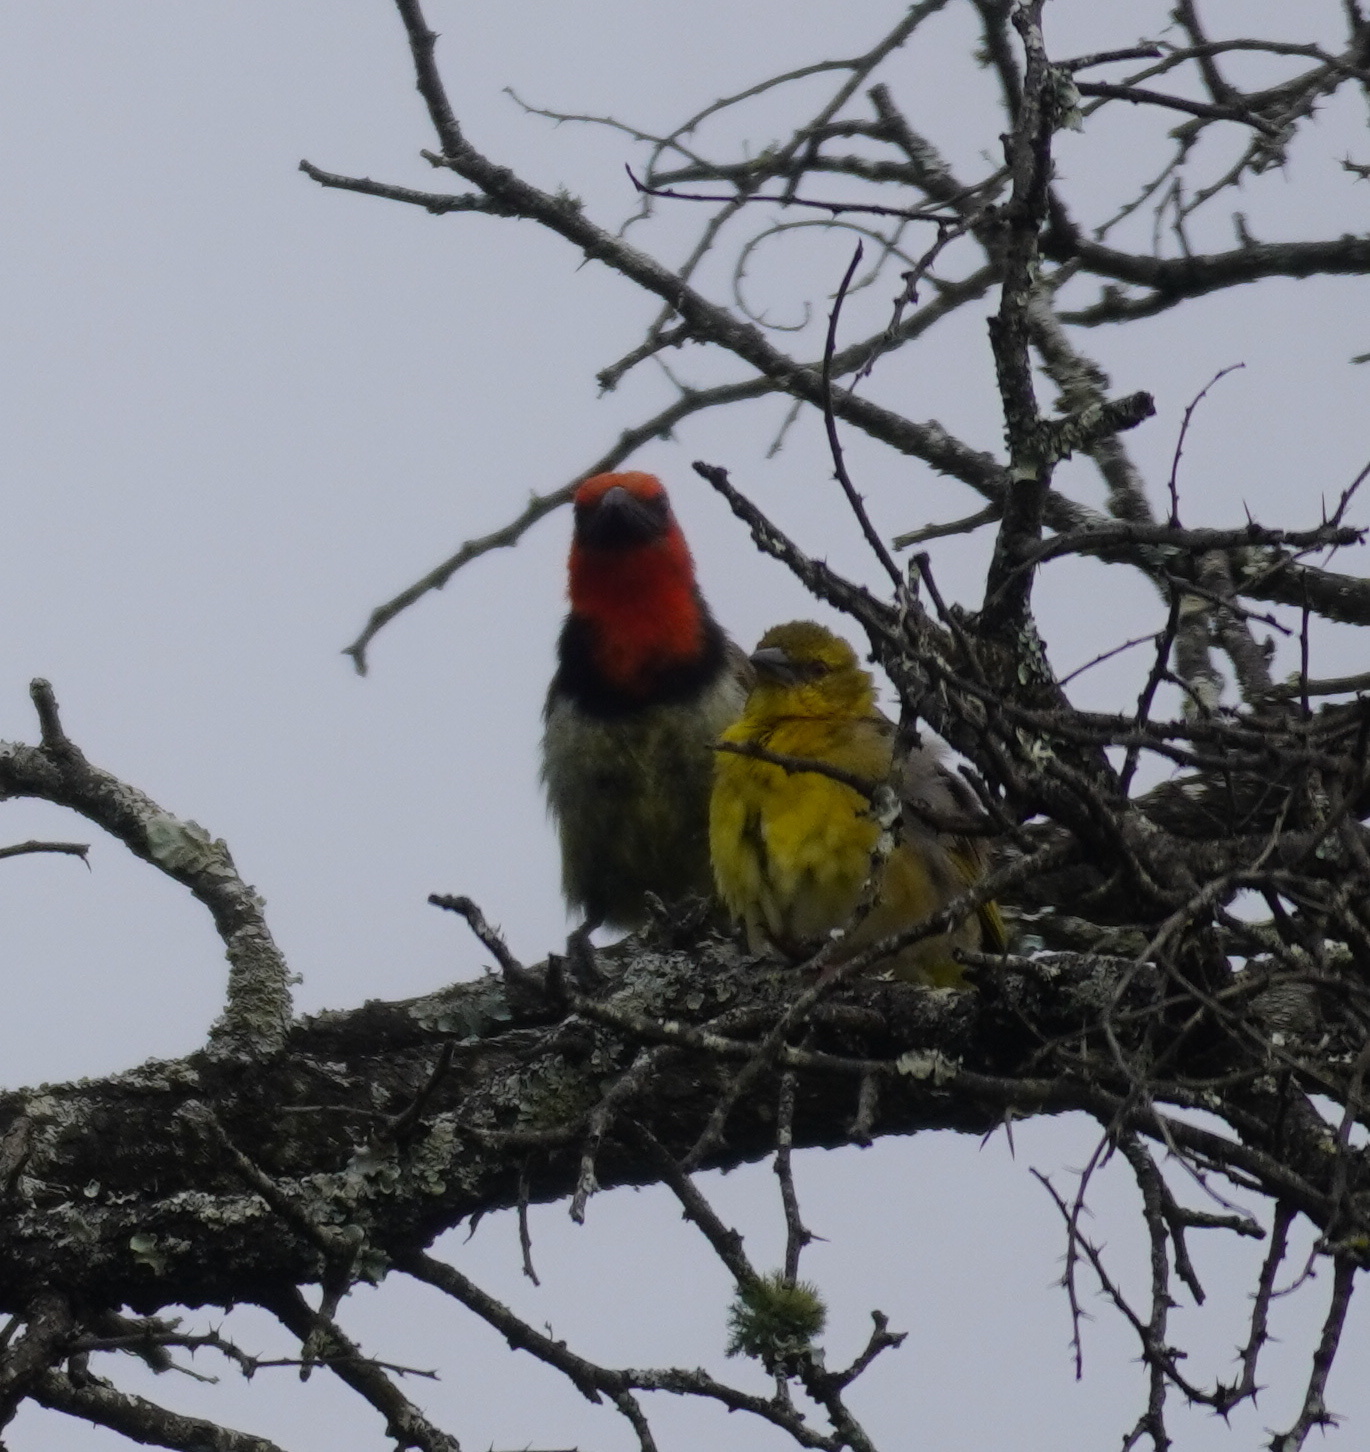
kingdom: Animalia
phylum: Chordata
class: Aves
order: Piciformes
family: Lybiidae
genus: Lybius
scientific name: Lybius torquatus
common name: Black-collared barbet
